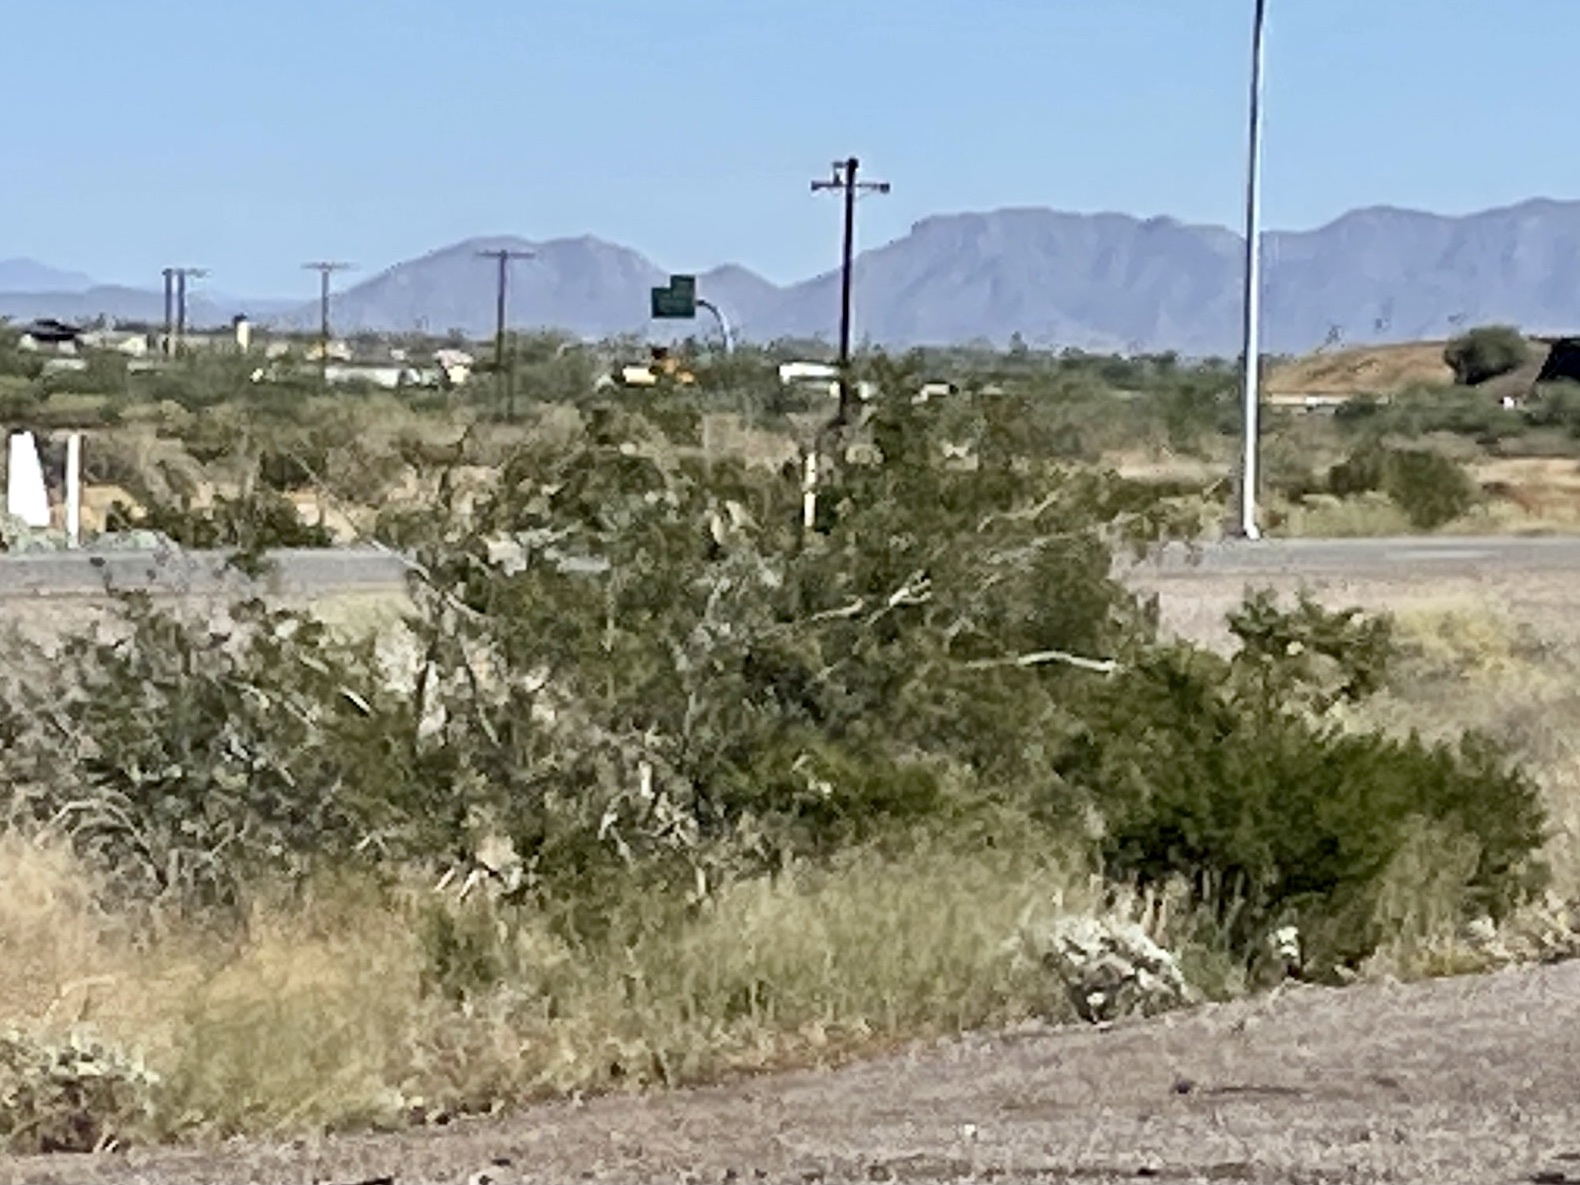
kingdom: Plantae
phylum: Tracheophyta
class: Magnoliopsida
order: Zygophyllales
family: Zygophyllaceae
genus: Larrea
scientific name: Larrea tridentata
